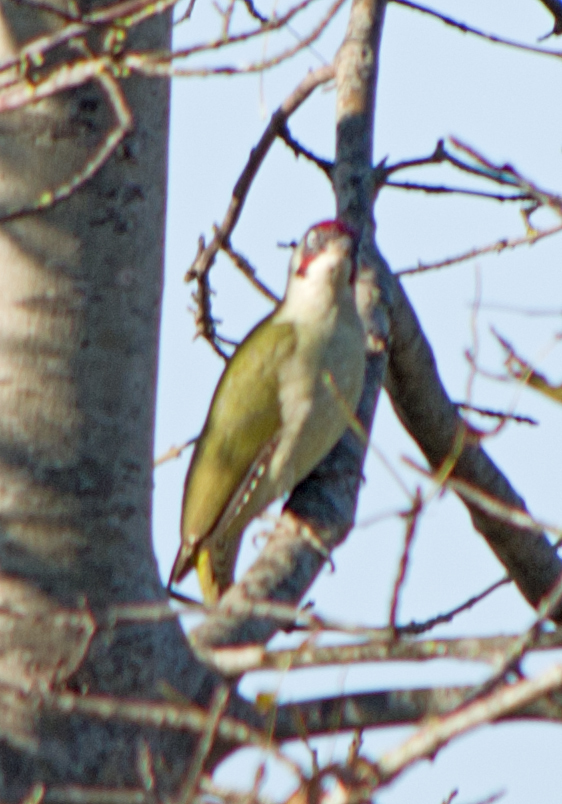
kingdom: Animalia
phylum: Chordata
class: Aves
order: Piciformes
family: Picidae
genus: Picus
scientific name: Picus viridis
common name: European green woodpecker
